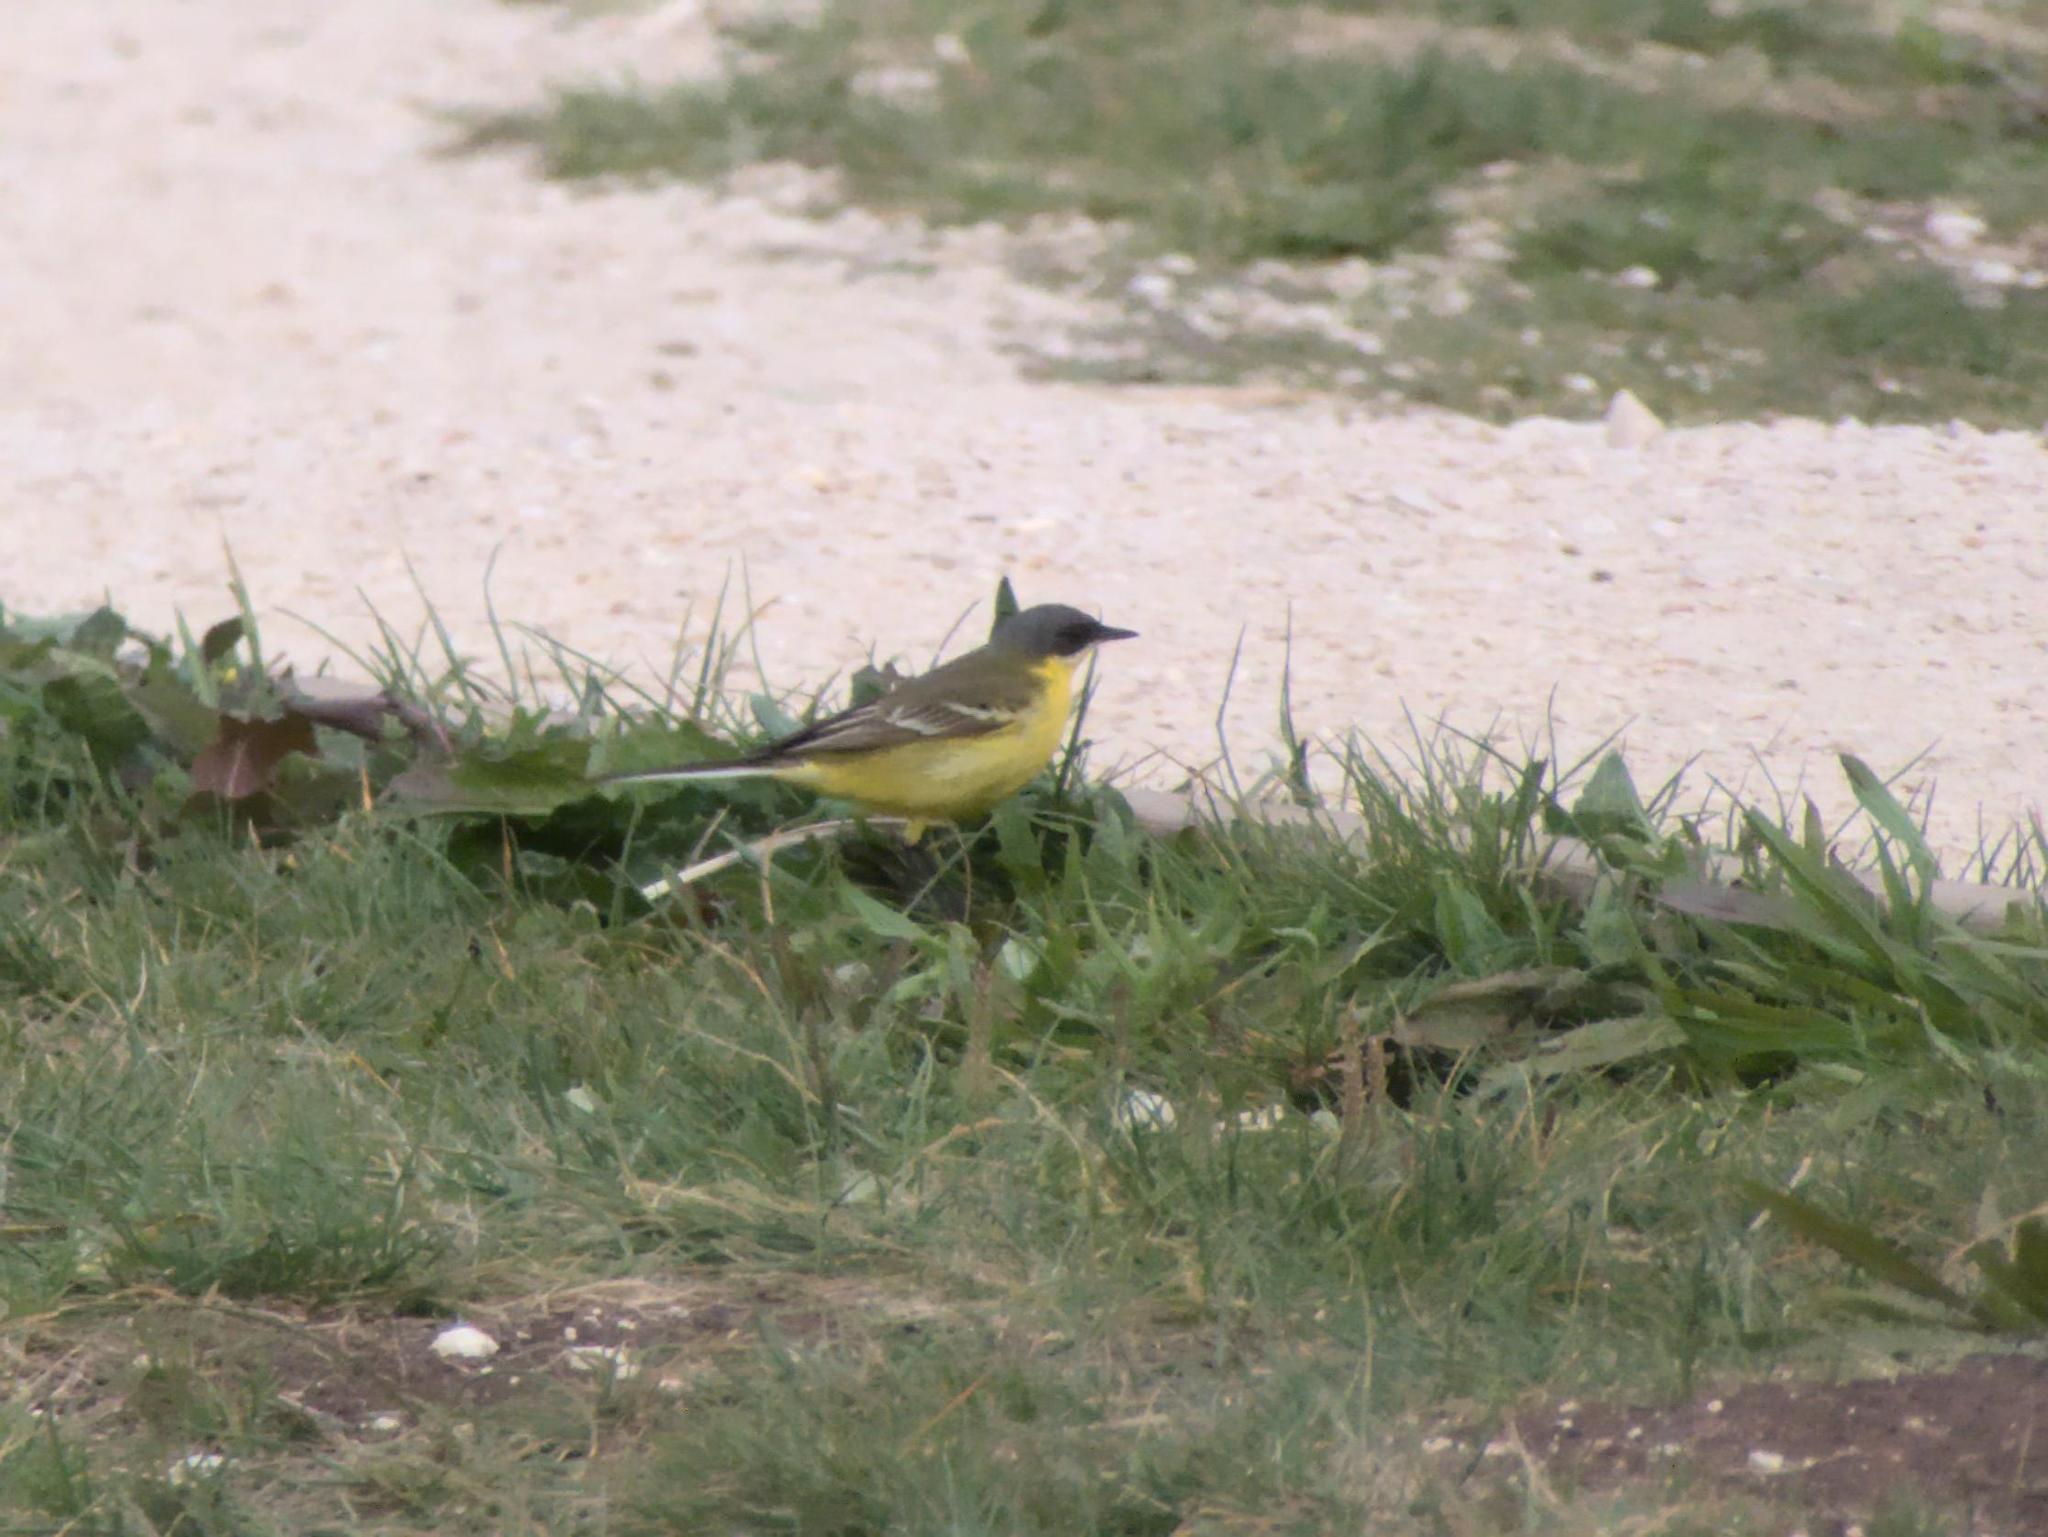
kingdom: Animalia
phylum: Chordata
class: Aves
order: Passeriformes
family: Motacillidae
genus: Motacilla
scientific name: Motacilla flava
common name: Western yellow wagtail
